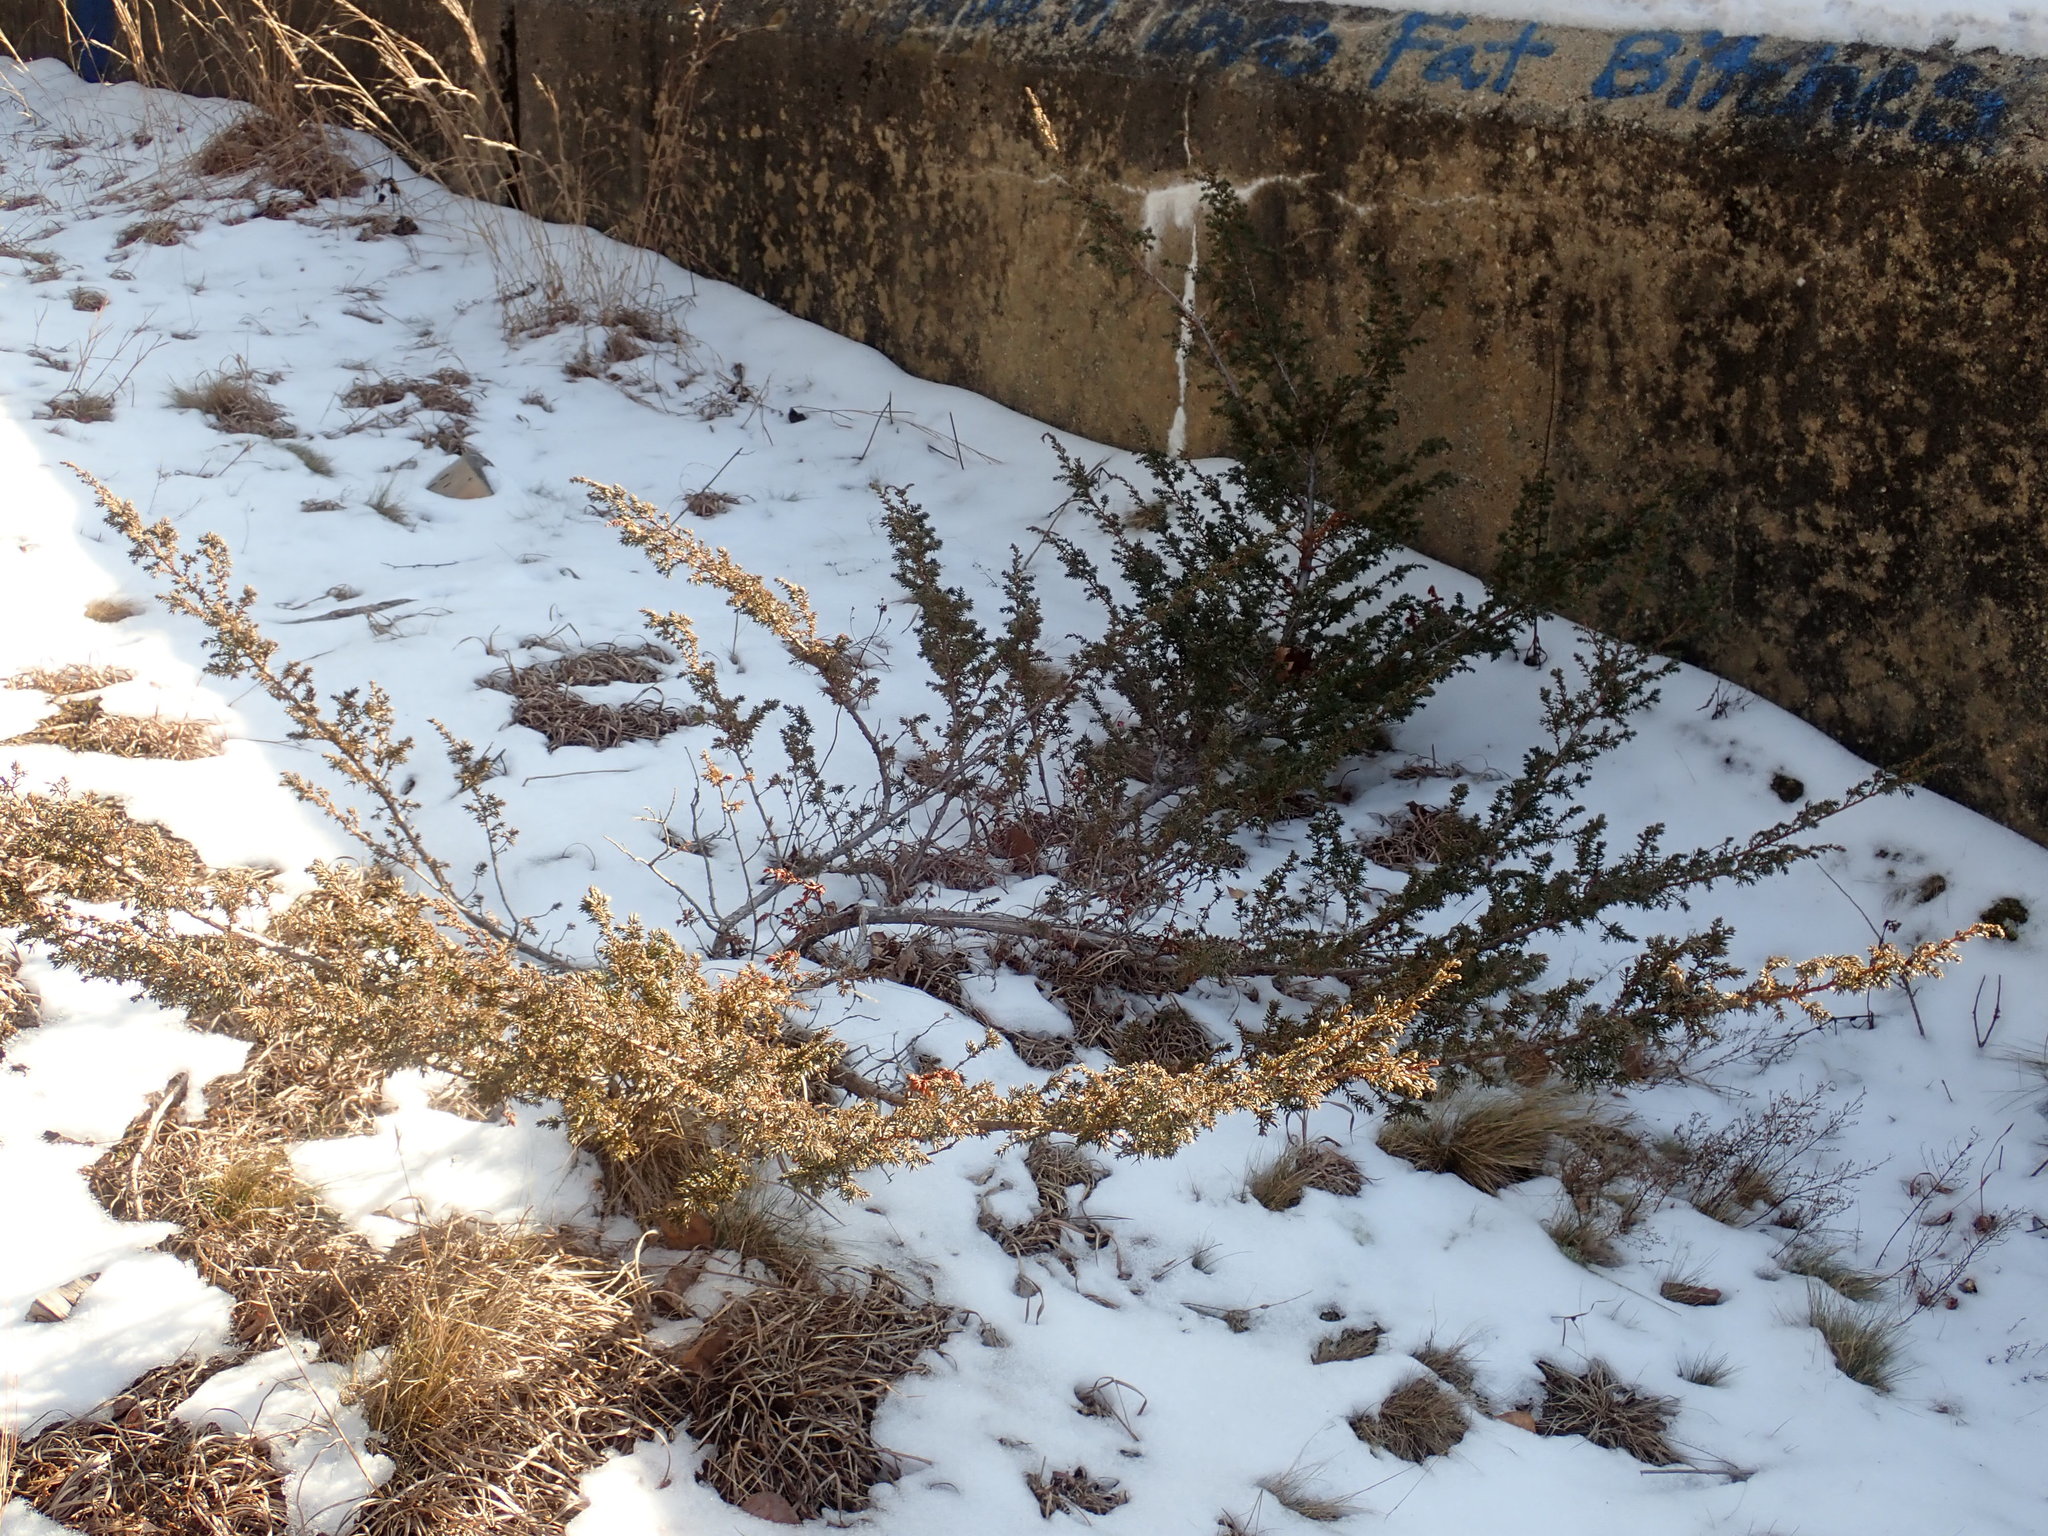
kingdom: Plantae
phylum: Tracheophyta
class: Pinopsida
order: Pinales
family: Cupressaceae
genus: Juniperus
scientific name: Juniperus communis
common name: Common juniper
